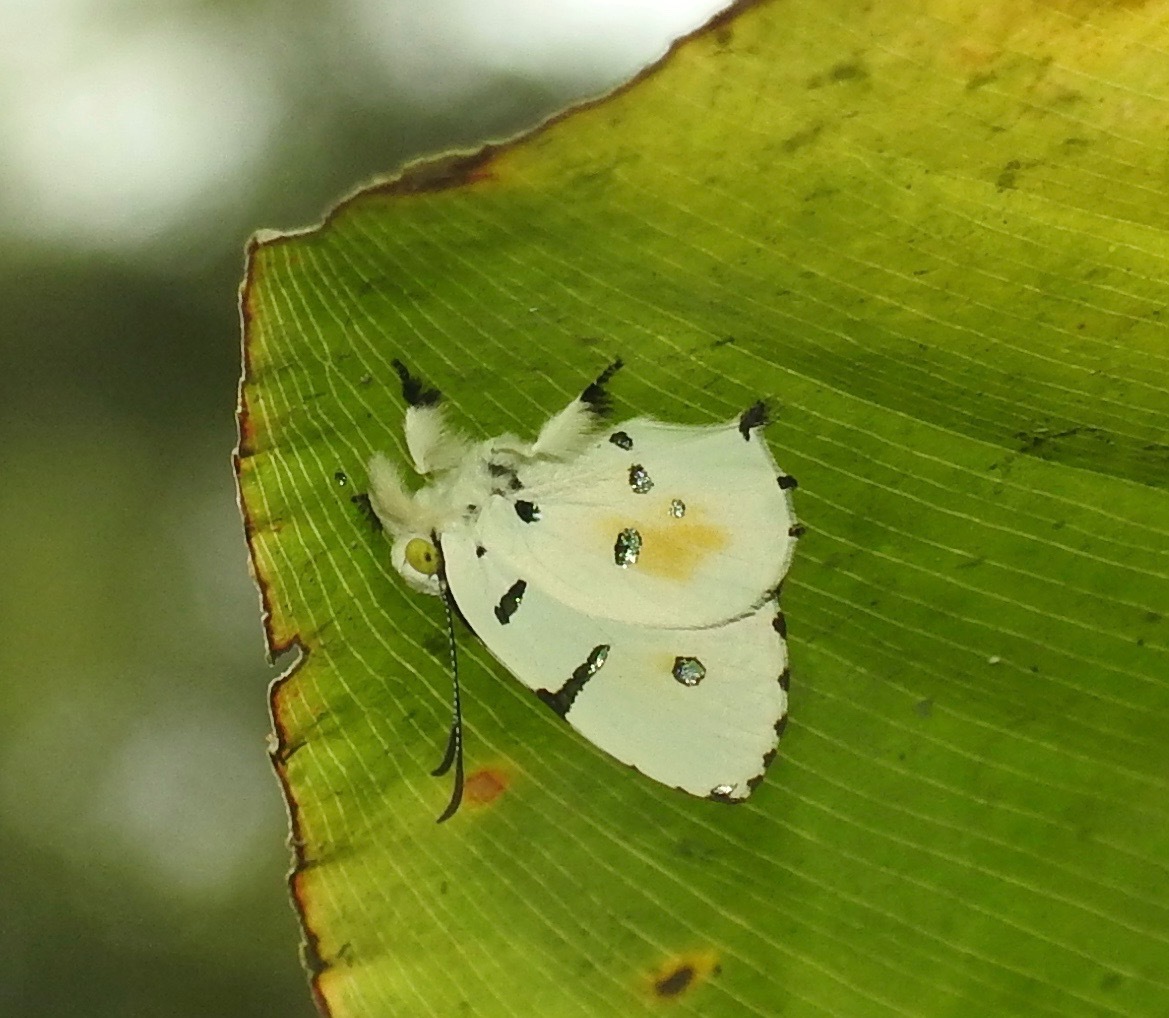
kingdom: Animalia
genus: Anteros
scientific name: Anteros allectus
